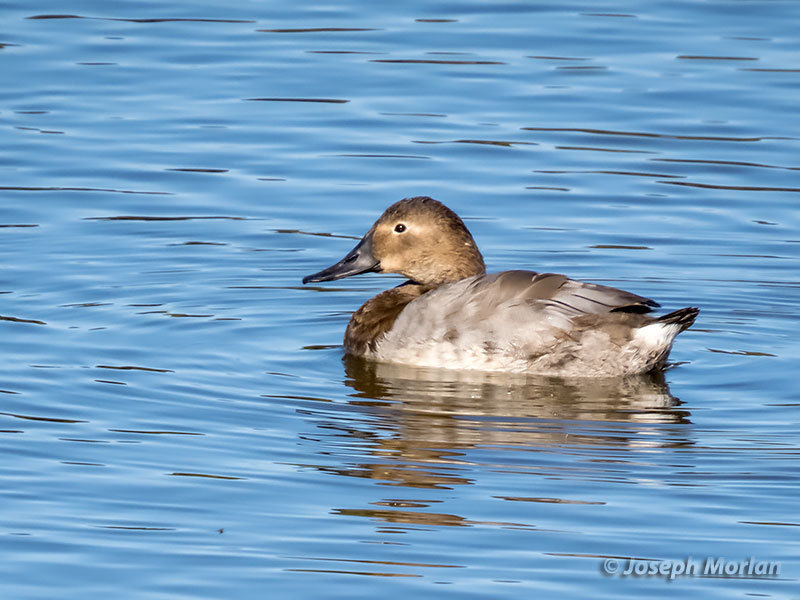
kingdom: Animalia
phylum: Chordata
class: Aves
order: Anseriformes
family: Anatidae
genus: Aythya
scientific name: Aythya valisineria
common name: Canvasback
